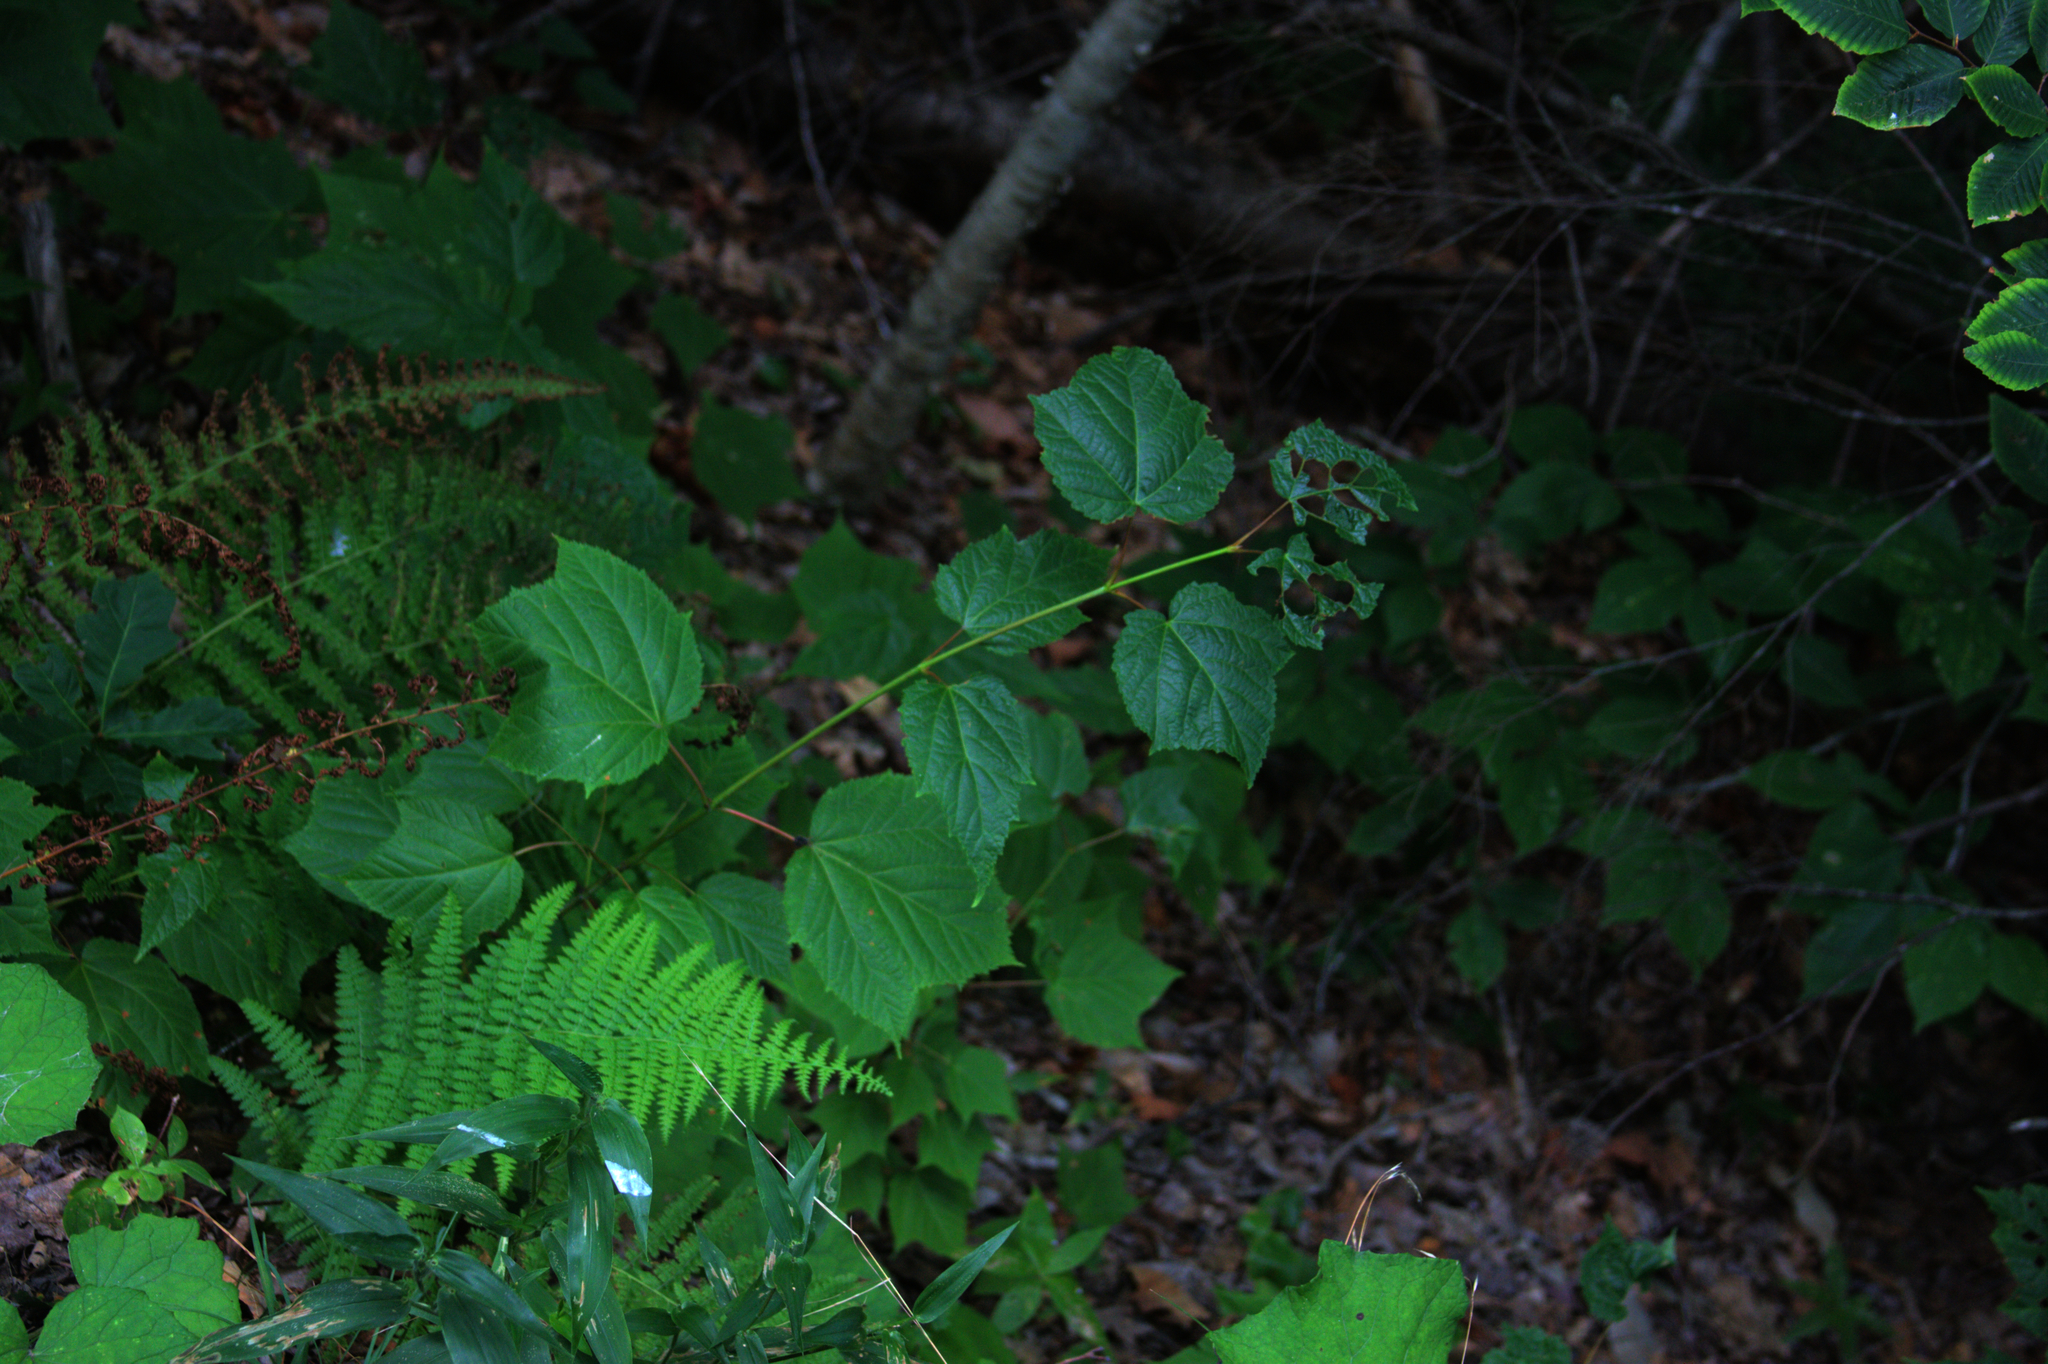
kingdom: Plantae
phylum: Tracheophyta
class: Magnoliopsida
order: Sapindales
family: Sapindaceae
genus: Acer
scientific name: Acer pensylvanicum
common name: Moosewood
